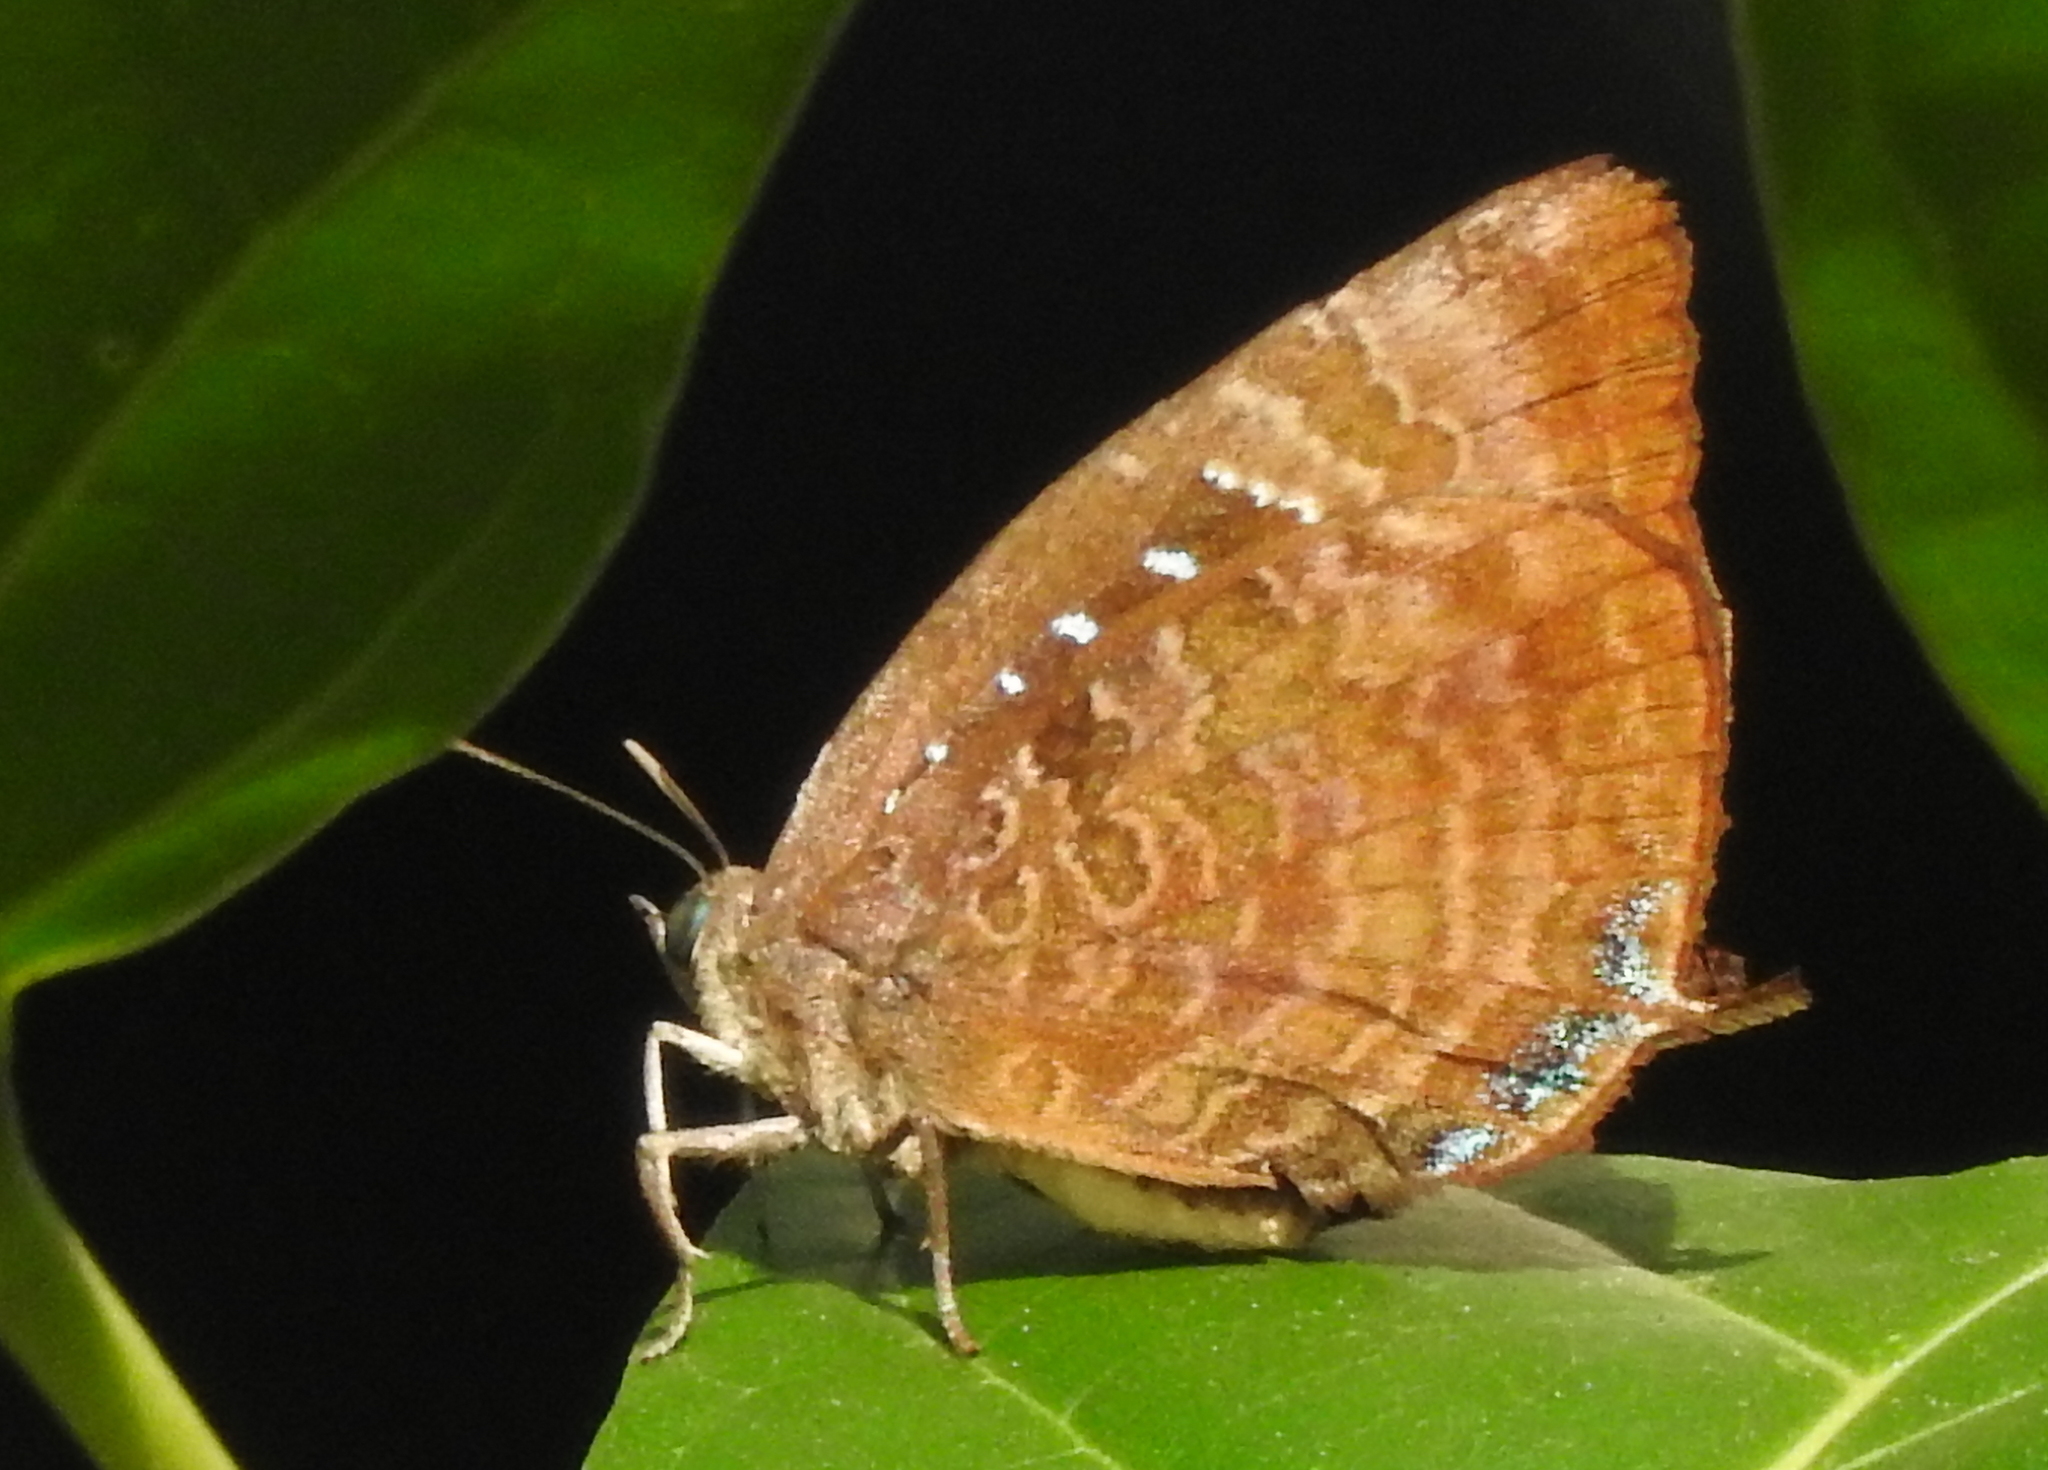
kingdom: Animalia
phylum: Arthropoda
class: Insecta
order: Lepidoptera
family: Lycaenidae
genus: Arhopala
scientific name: Arhopala centaurus
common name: Dull oak-blue
